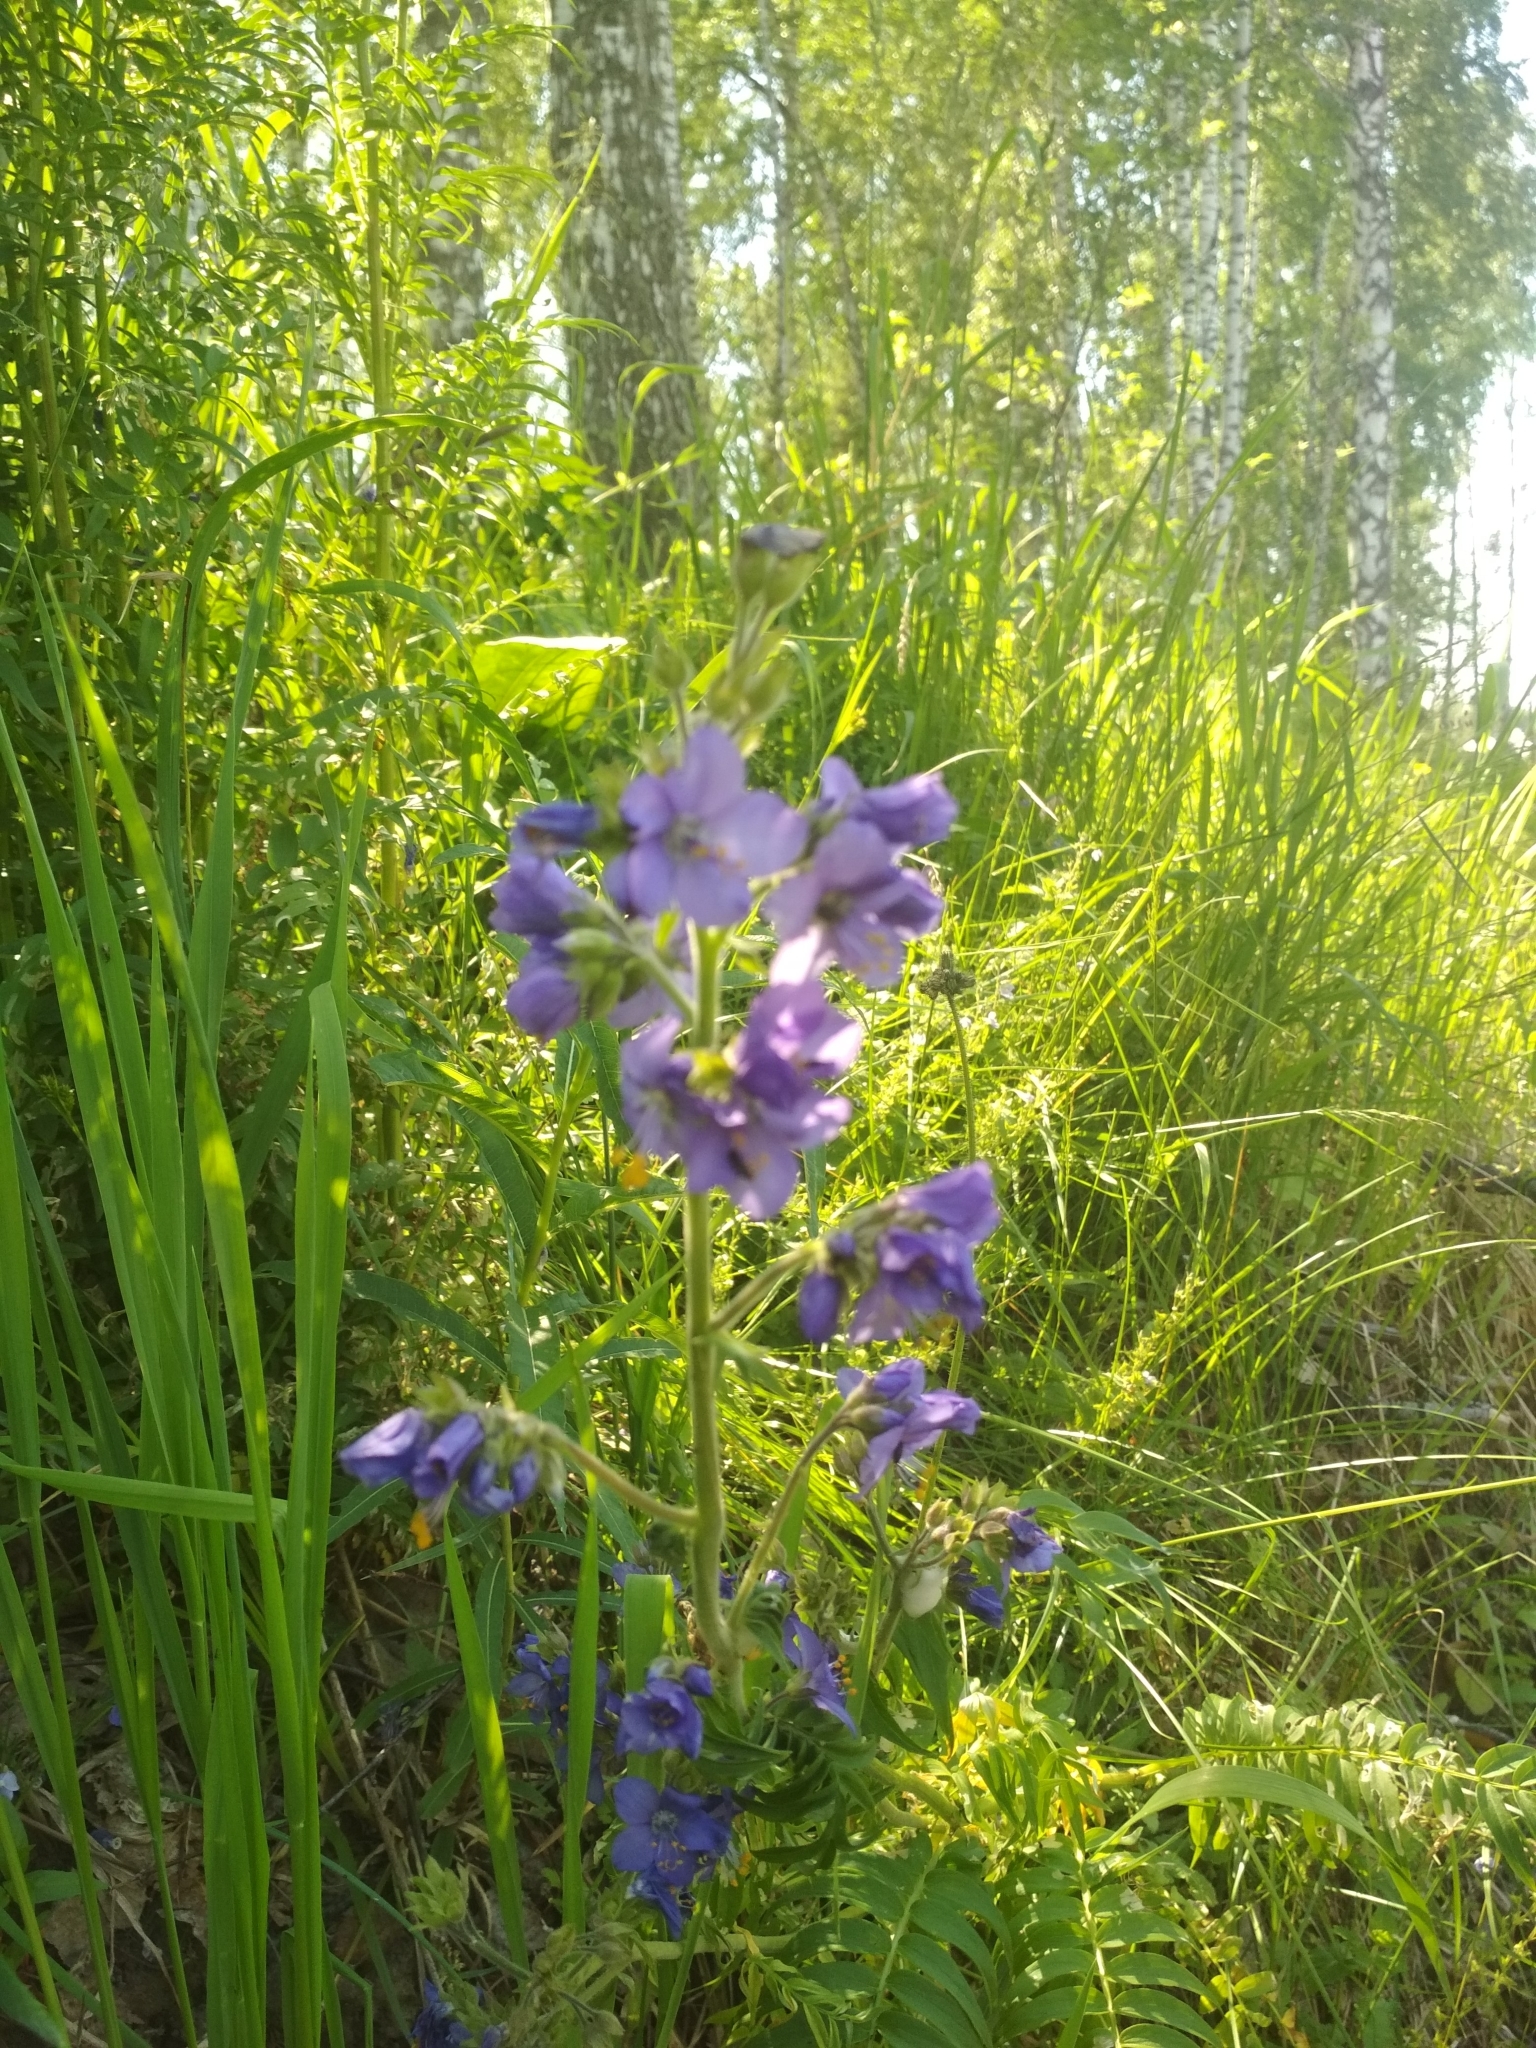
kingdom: Plantae
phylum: Tracheophyta
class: Magnoliopsida
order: Ericales
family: Polemoniaceae
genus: Polemonium
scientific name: Polemonium caeruleum
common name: Jacob's-ladder
